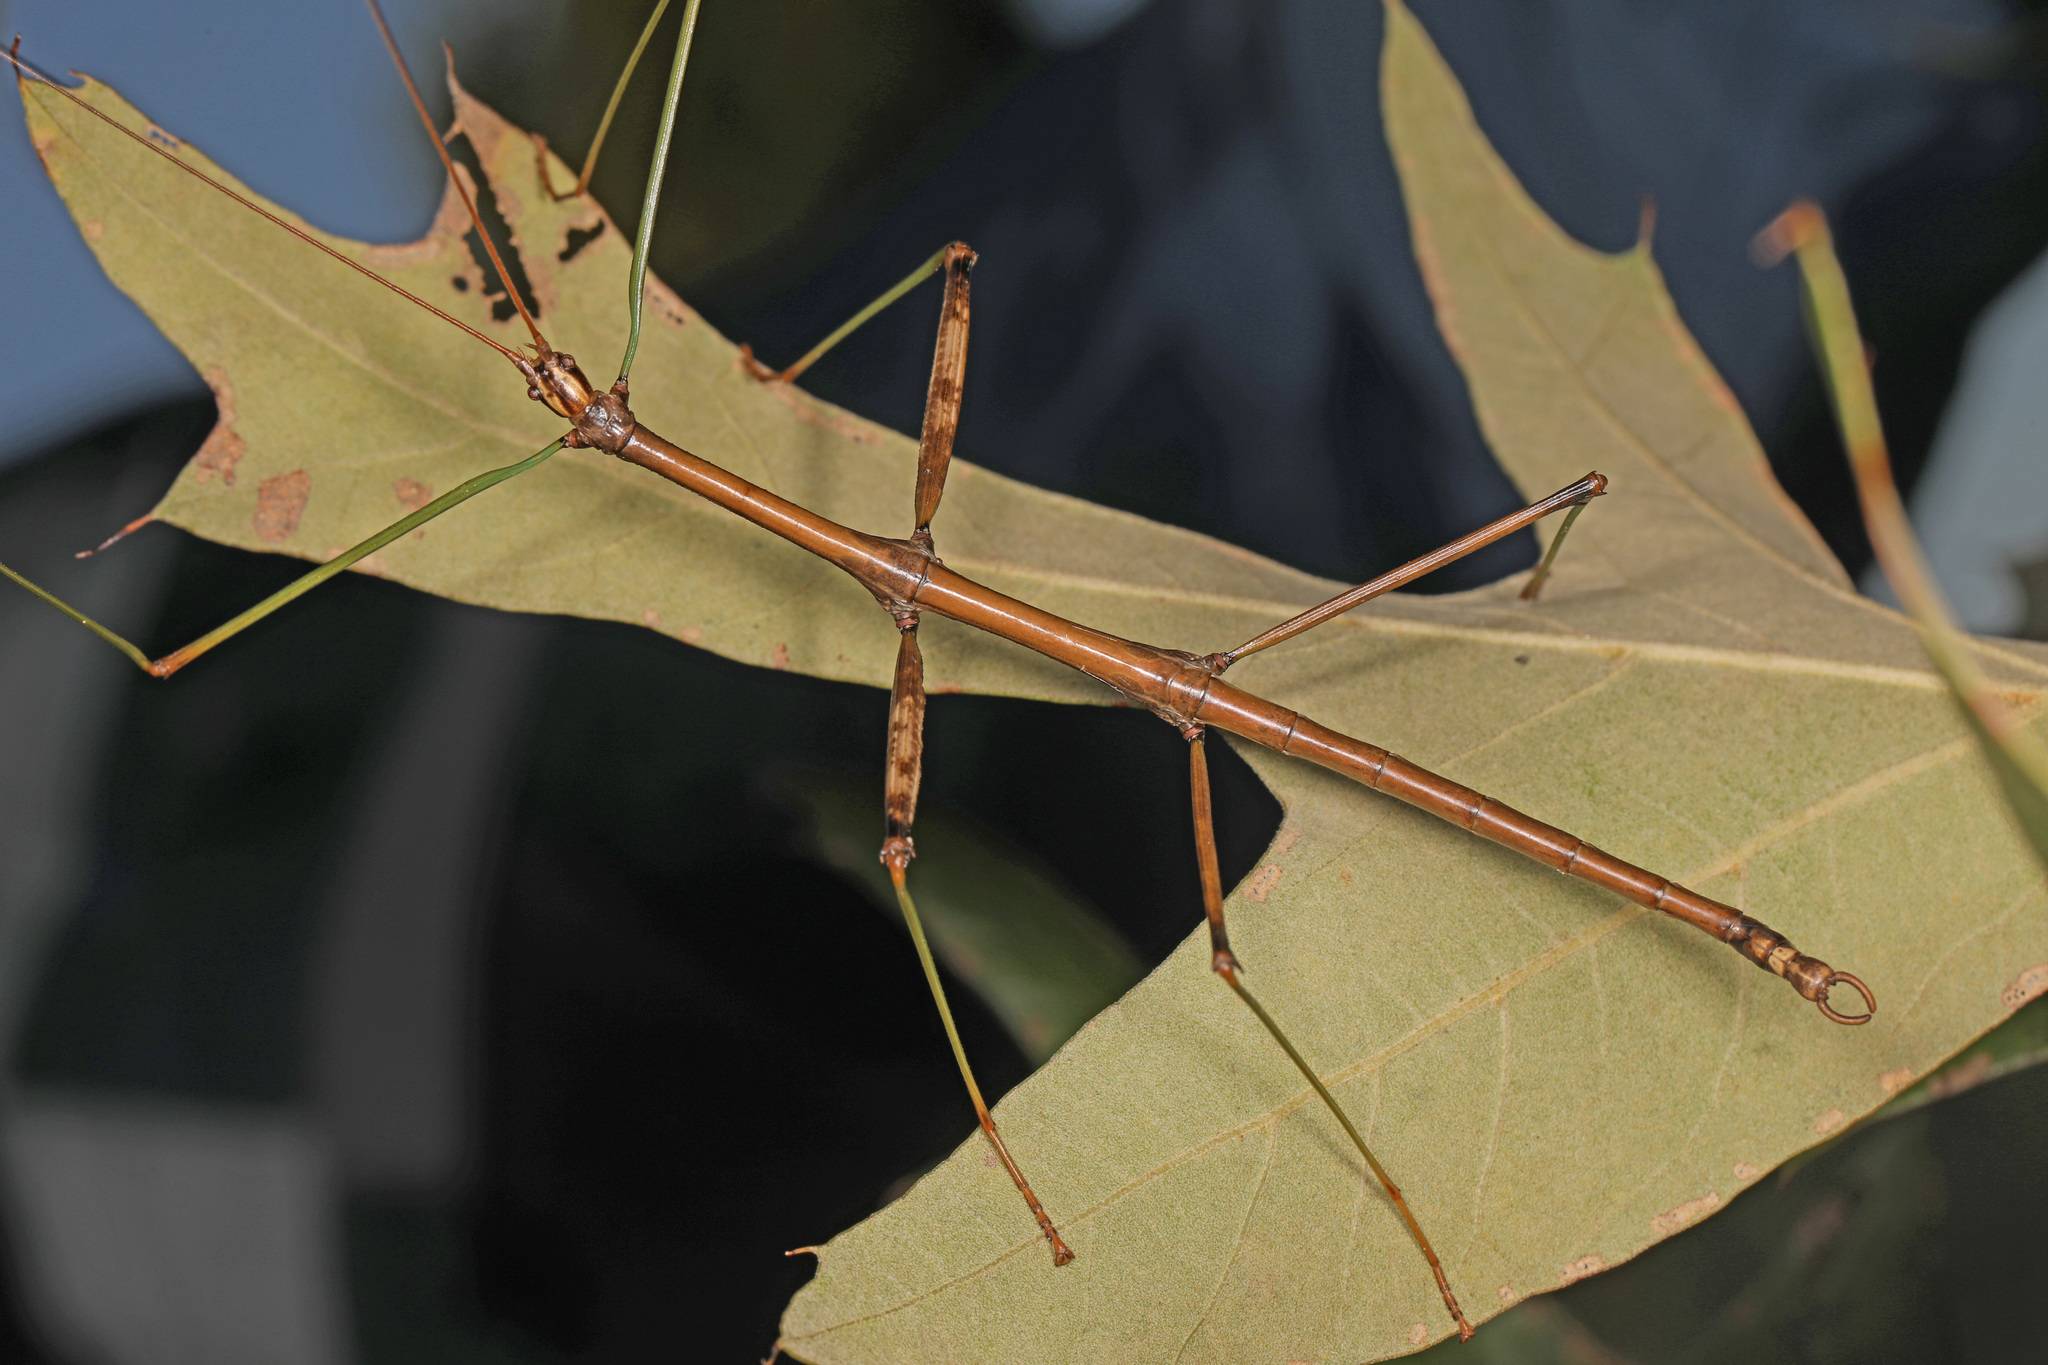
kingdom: Animalia
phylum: Arthropoda
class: Insecta
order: Phasmida
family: Diapheromeridae
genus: Diapheromera
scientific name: Diapheromera femorata
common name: Common american walkingstick
